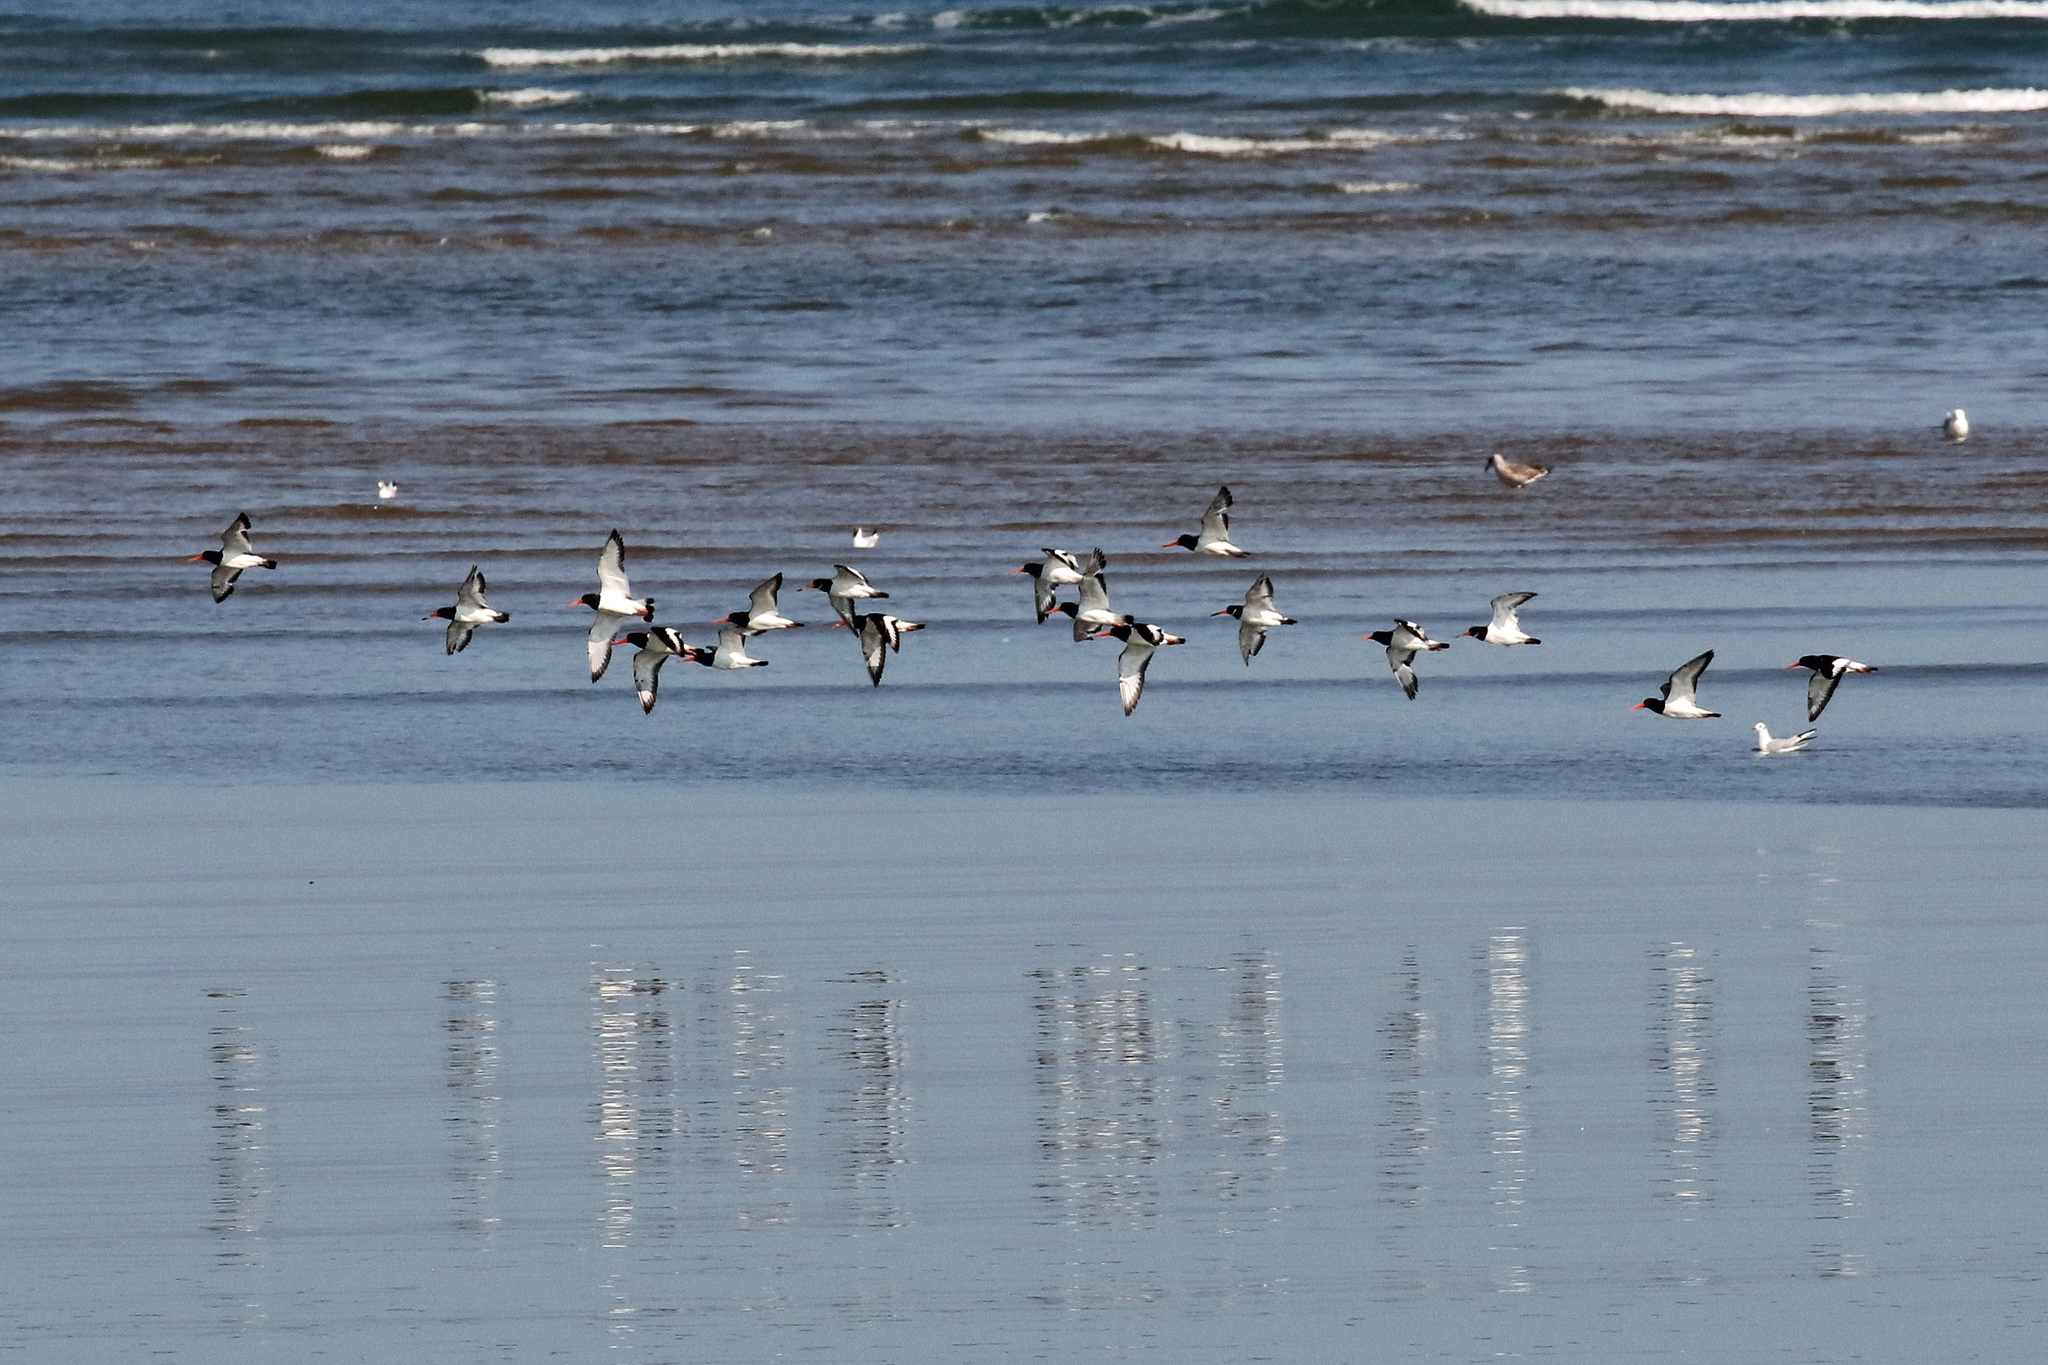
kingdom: Animalia
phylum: Chordata
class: Aves
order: Charadriiformes
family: Haematopodidae
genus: Haematopus
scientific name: Haematopus ostralegus
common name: Eurasian oystercatcher
